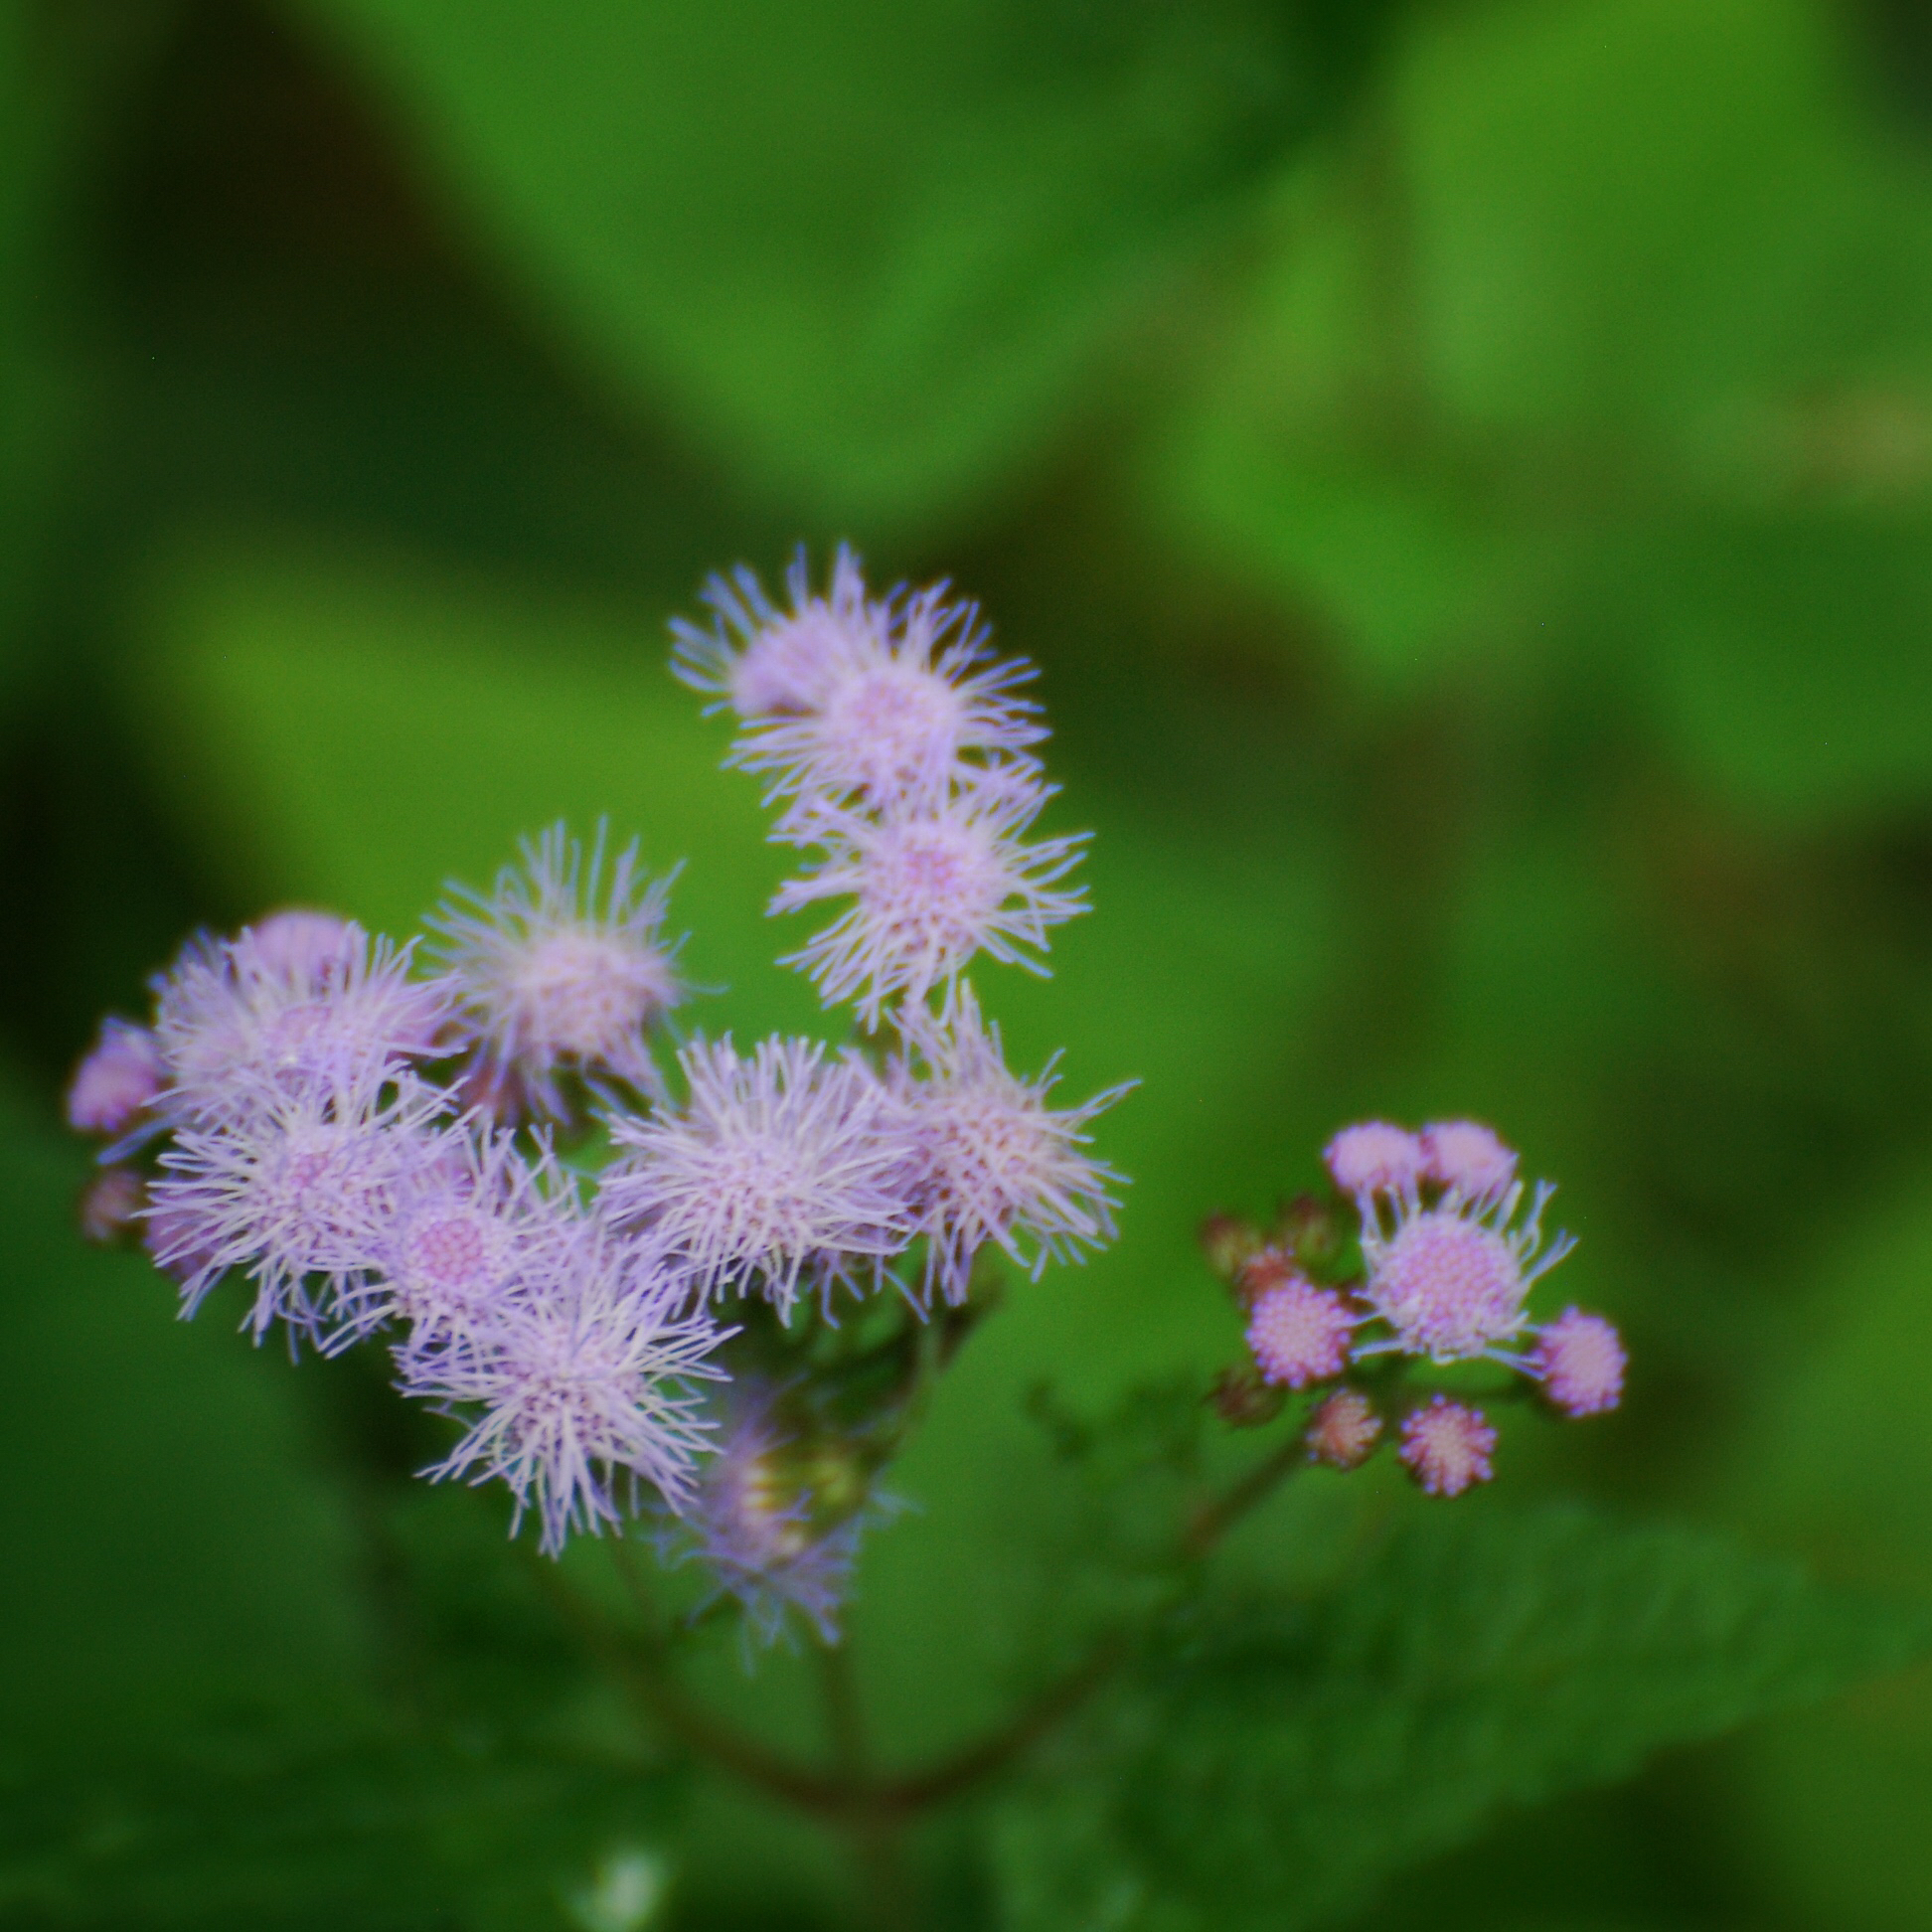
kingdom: Plantae
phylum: Tracheophyta
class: Magnoliopsida
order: Asterales
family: Asteraceae
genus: Conoclinium
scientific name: Conoclinium coelestinum
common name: Blue mistflower
